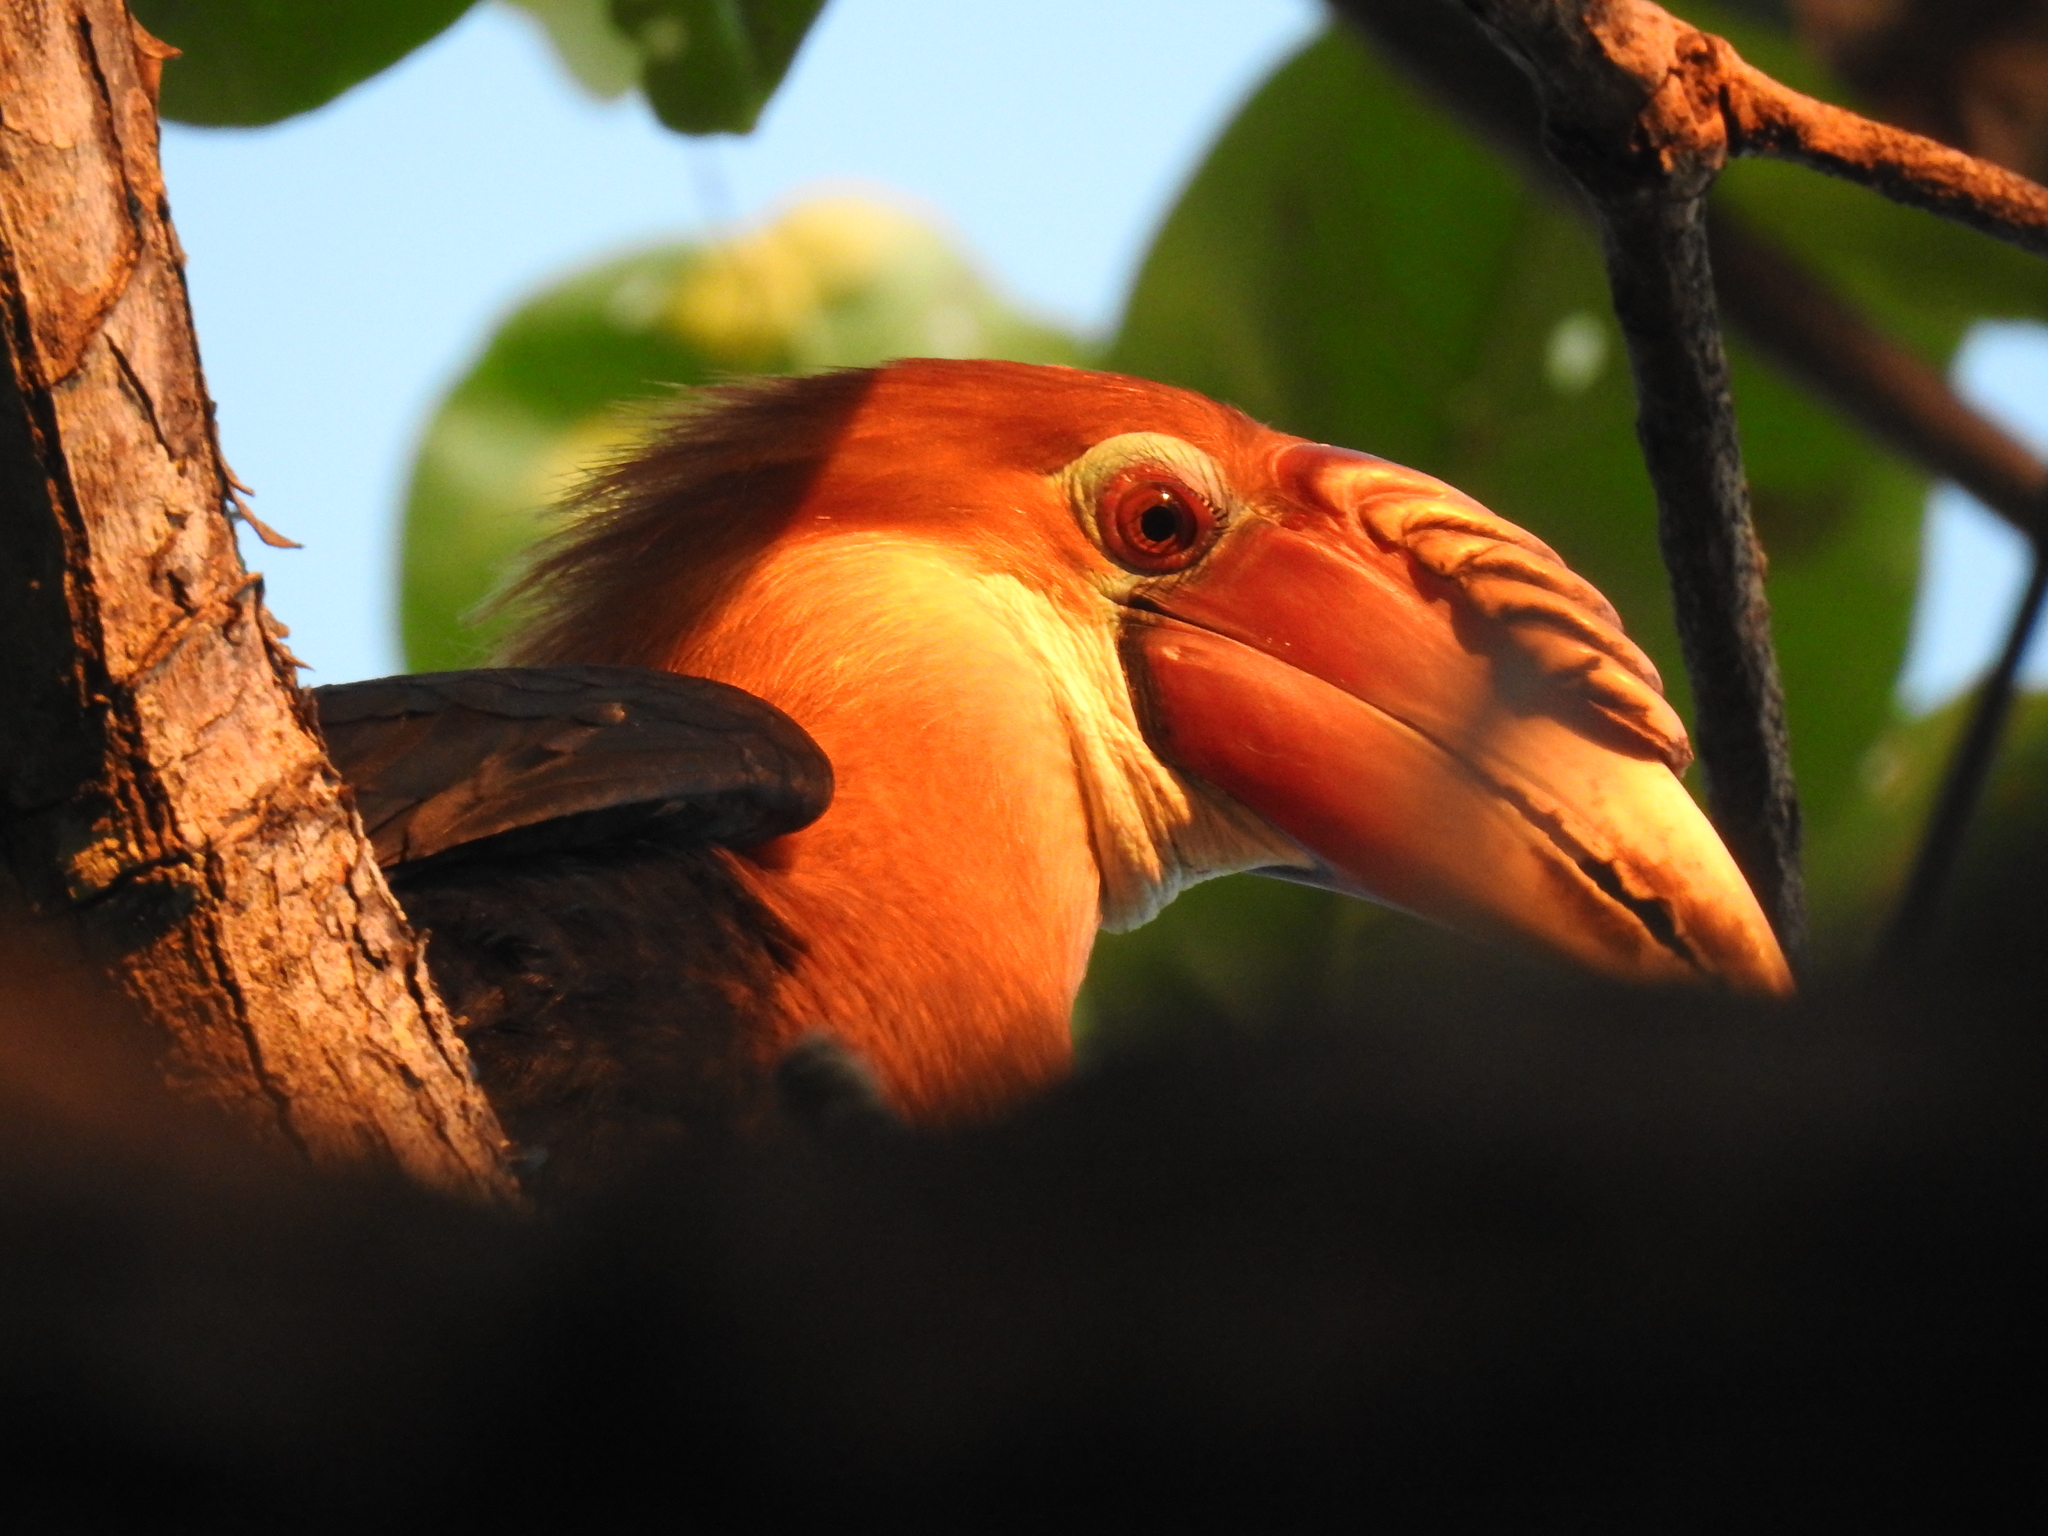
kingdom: Animalia
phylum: Chordata
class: Aves
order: Bucerotiformes
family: Bucerotidae
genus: Rhyticeros
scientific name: Rhyticeros narcondami
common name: Narcondam hornbill
